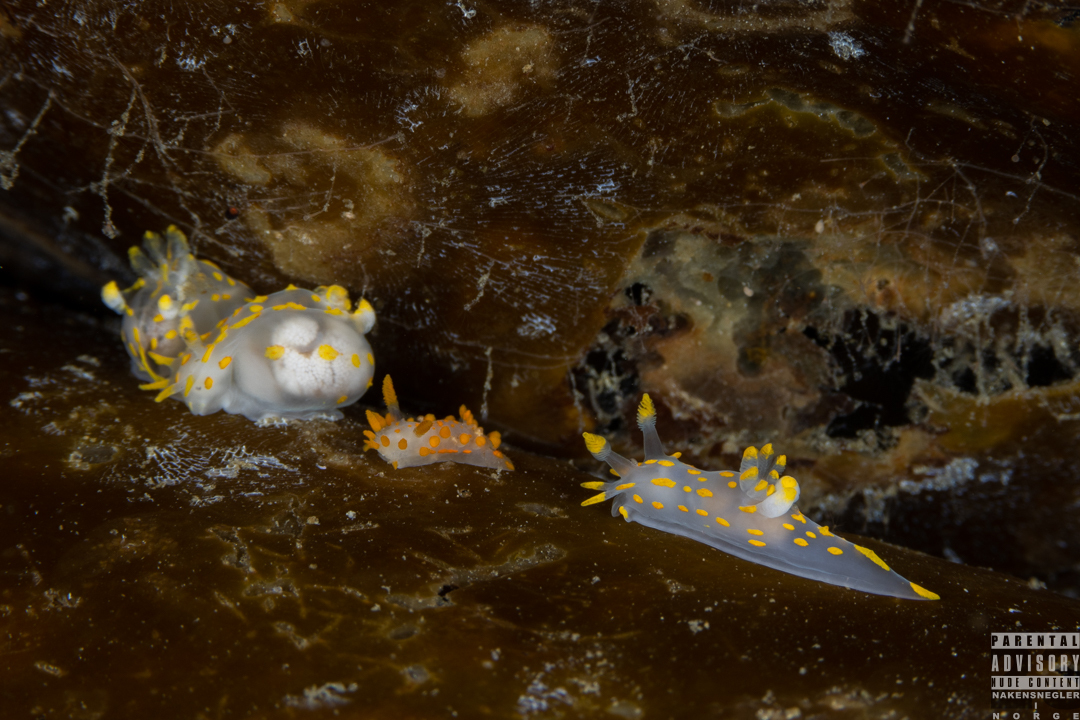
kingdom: Animalia
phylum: Mollusca
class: Gastropoda
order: Nudibranchia
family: Polyceridae
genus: Limacia
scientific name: Limacia clavigera
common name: Orange-clubbed sea slug
